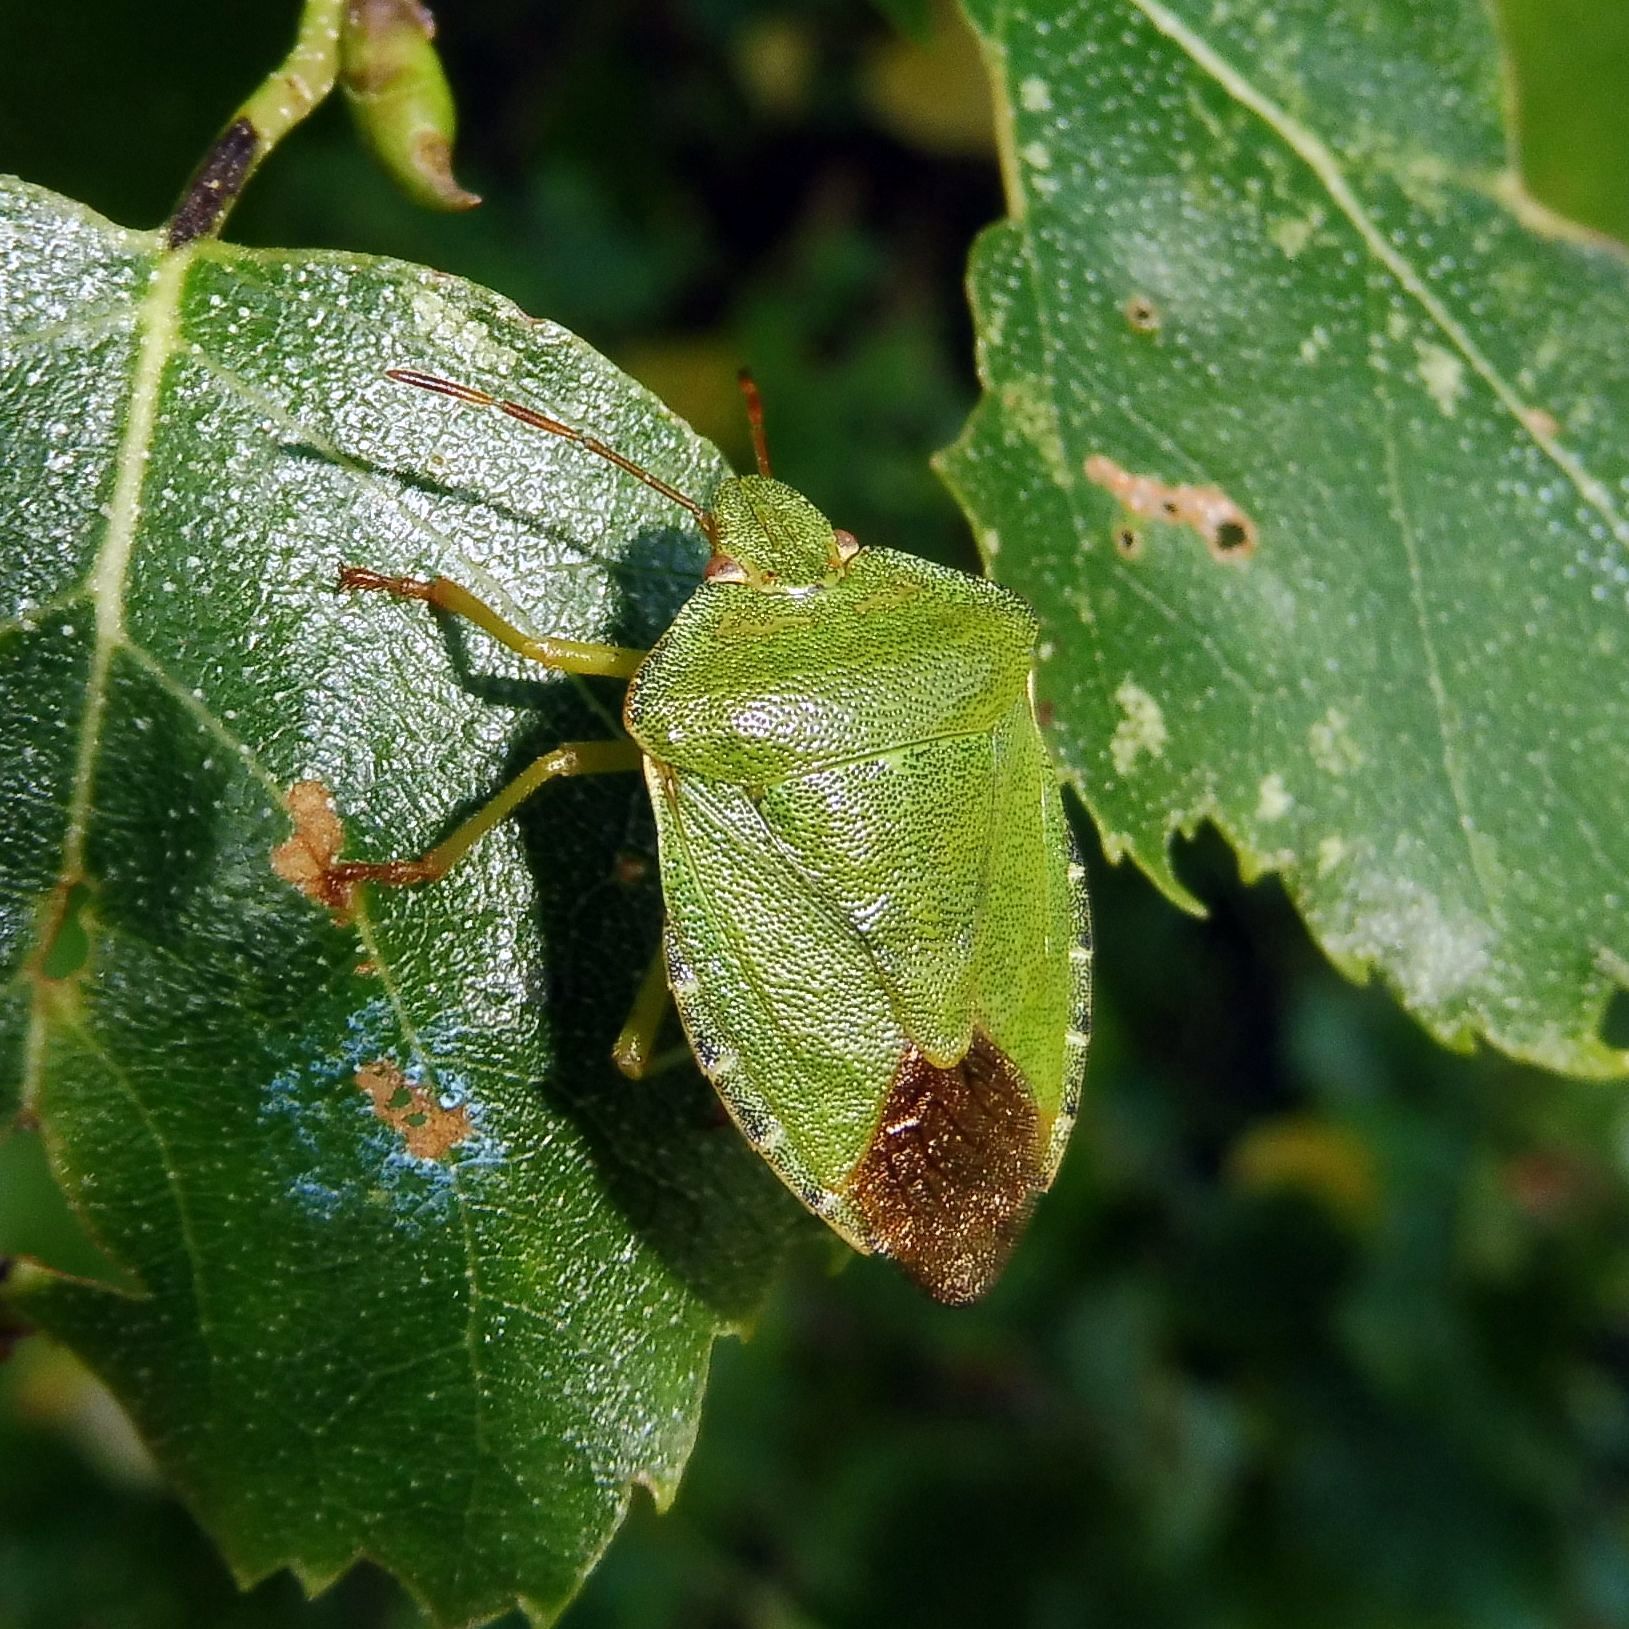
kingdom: Animalia
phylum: Arthropoda
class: Insecta
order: Hemiptera
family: Pentatomidae
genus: Palomena
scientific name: Palomena prasina
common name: Green shieldbug
